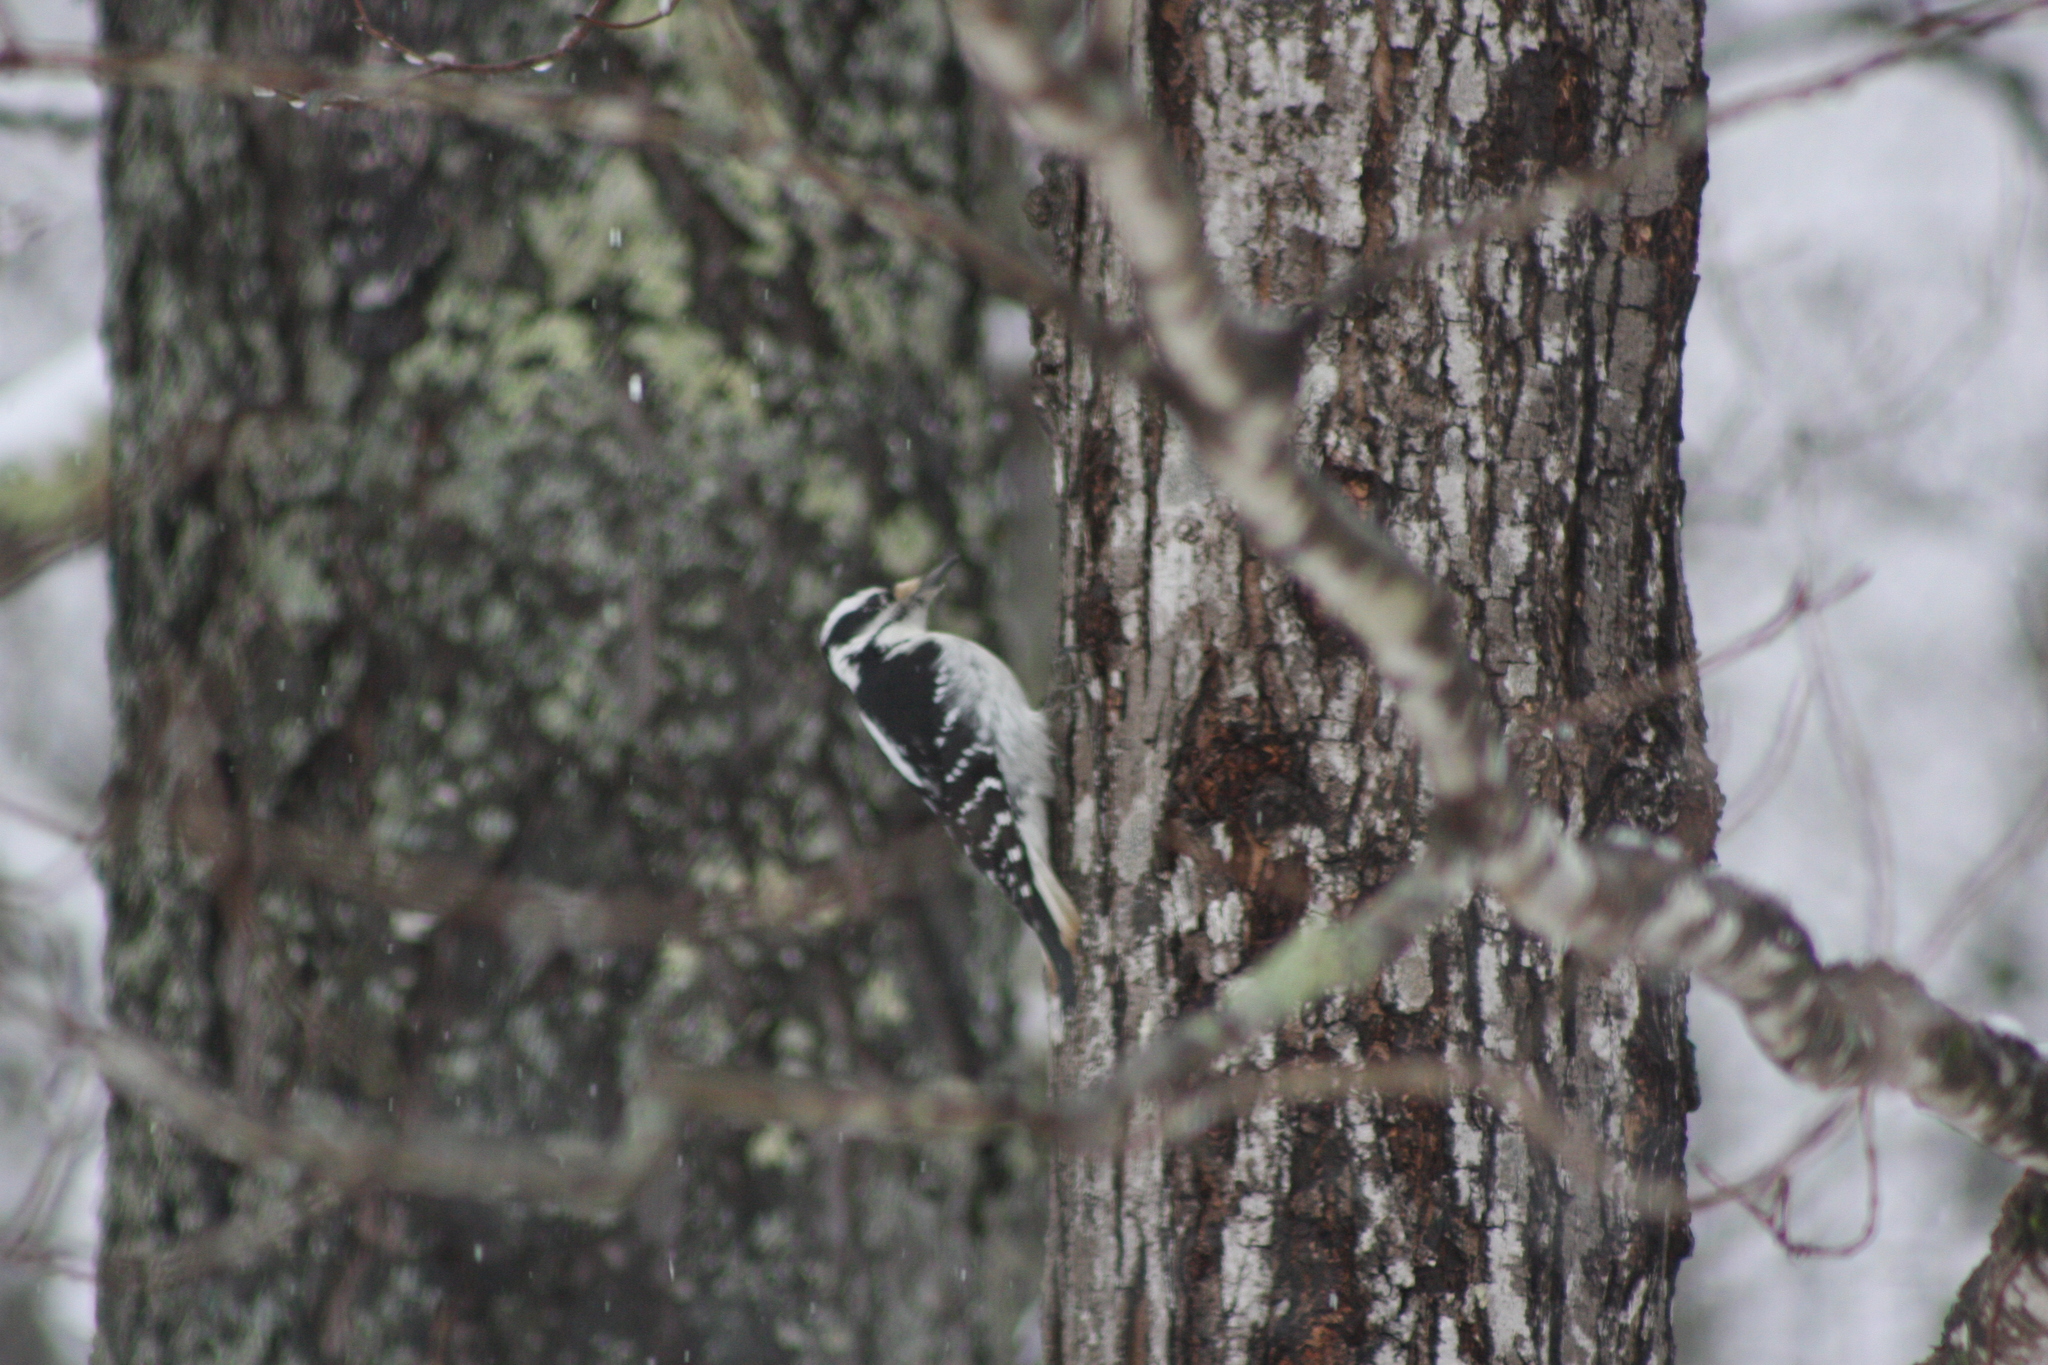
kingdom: Animalia
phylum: Chordata
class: Aves
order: Piciformes
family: Picidae
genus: Leuconotopicus
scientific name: Leuconotopicus villosus
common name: Hairy woodpecker
